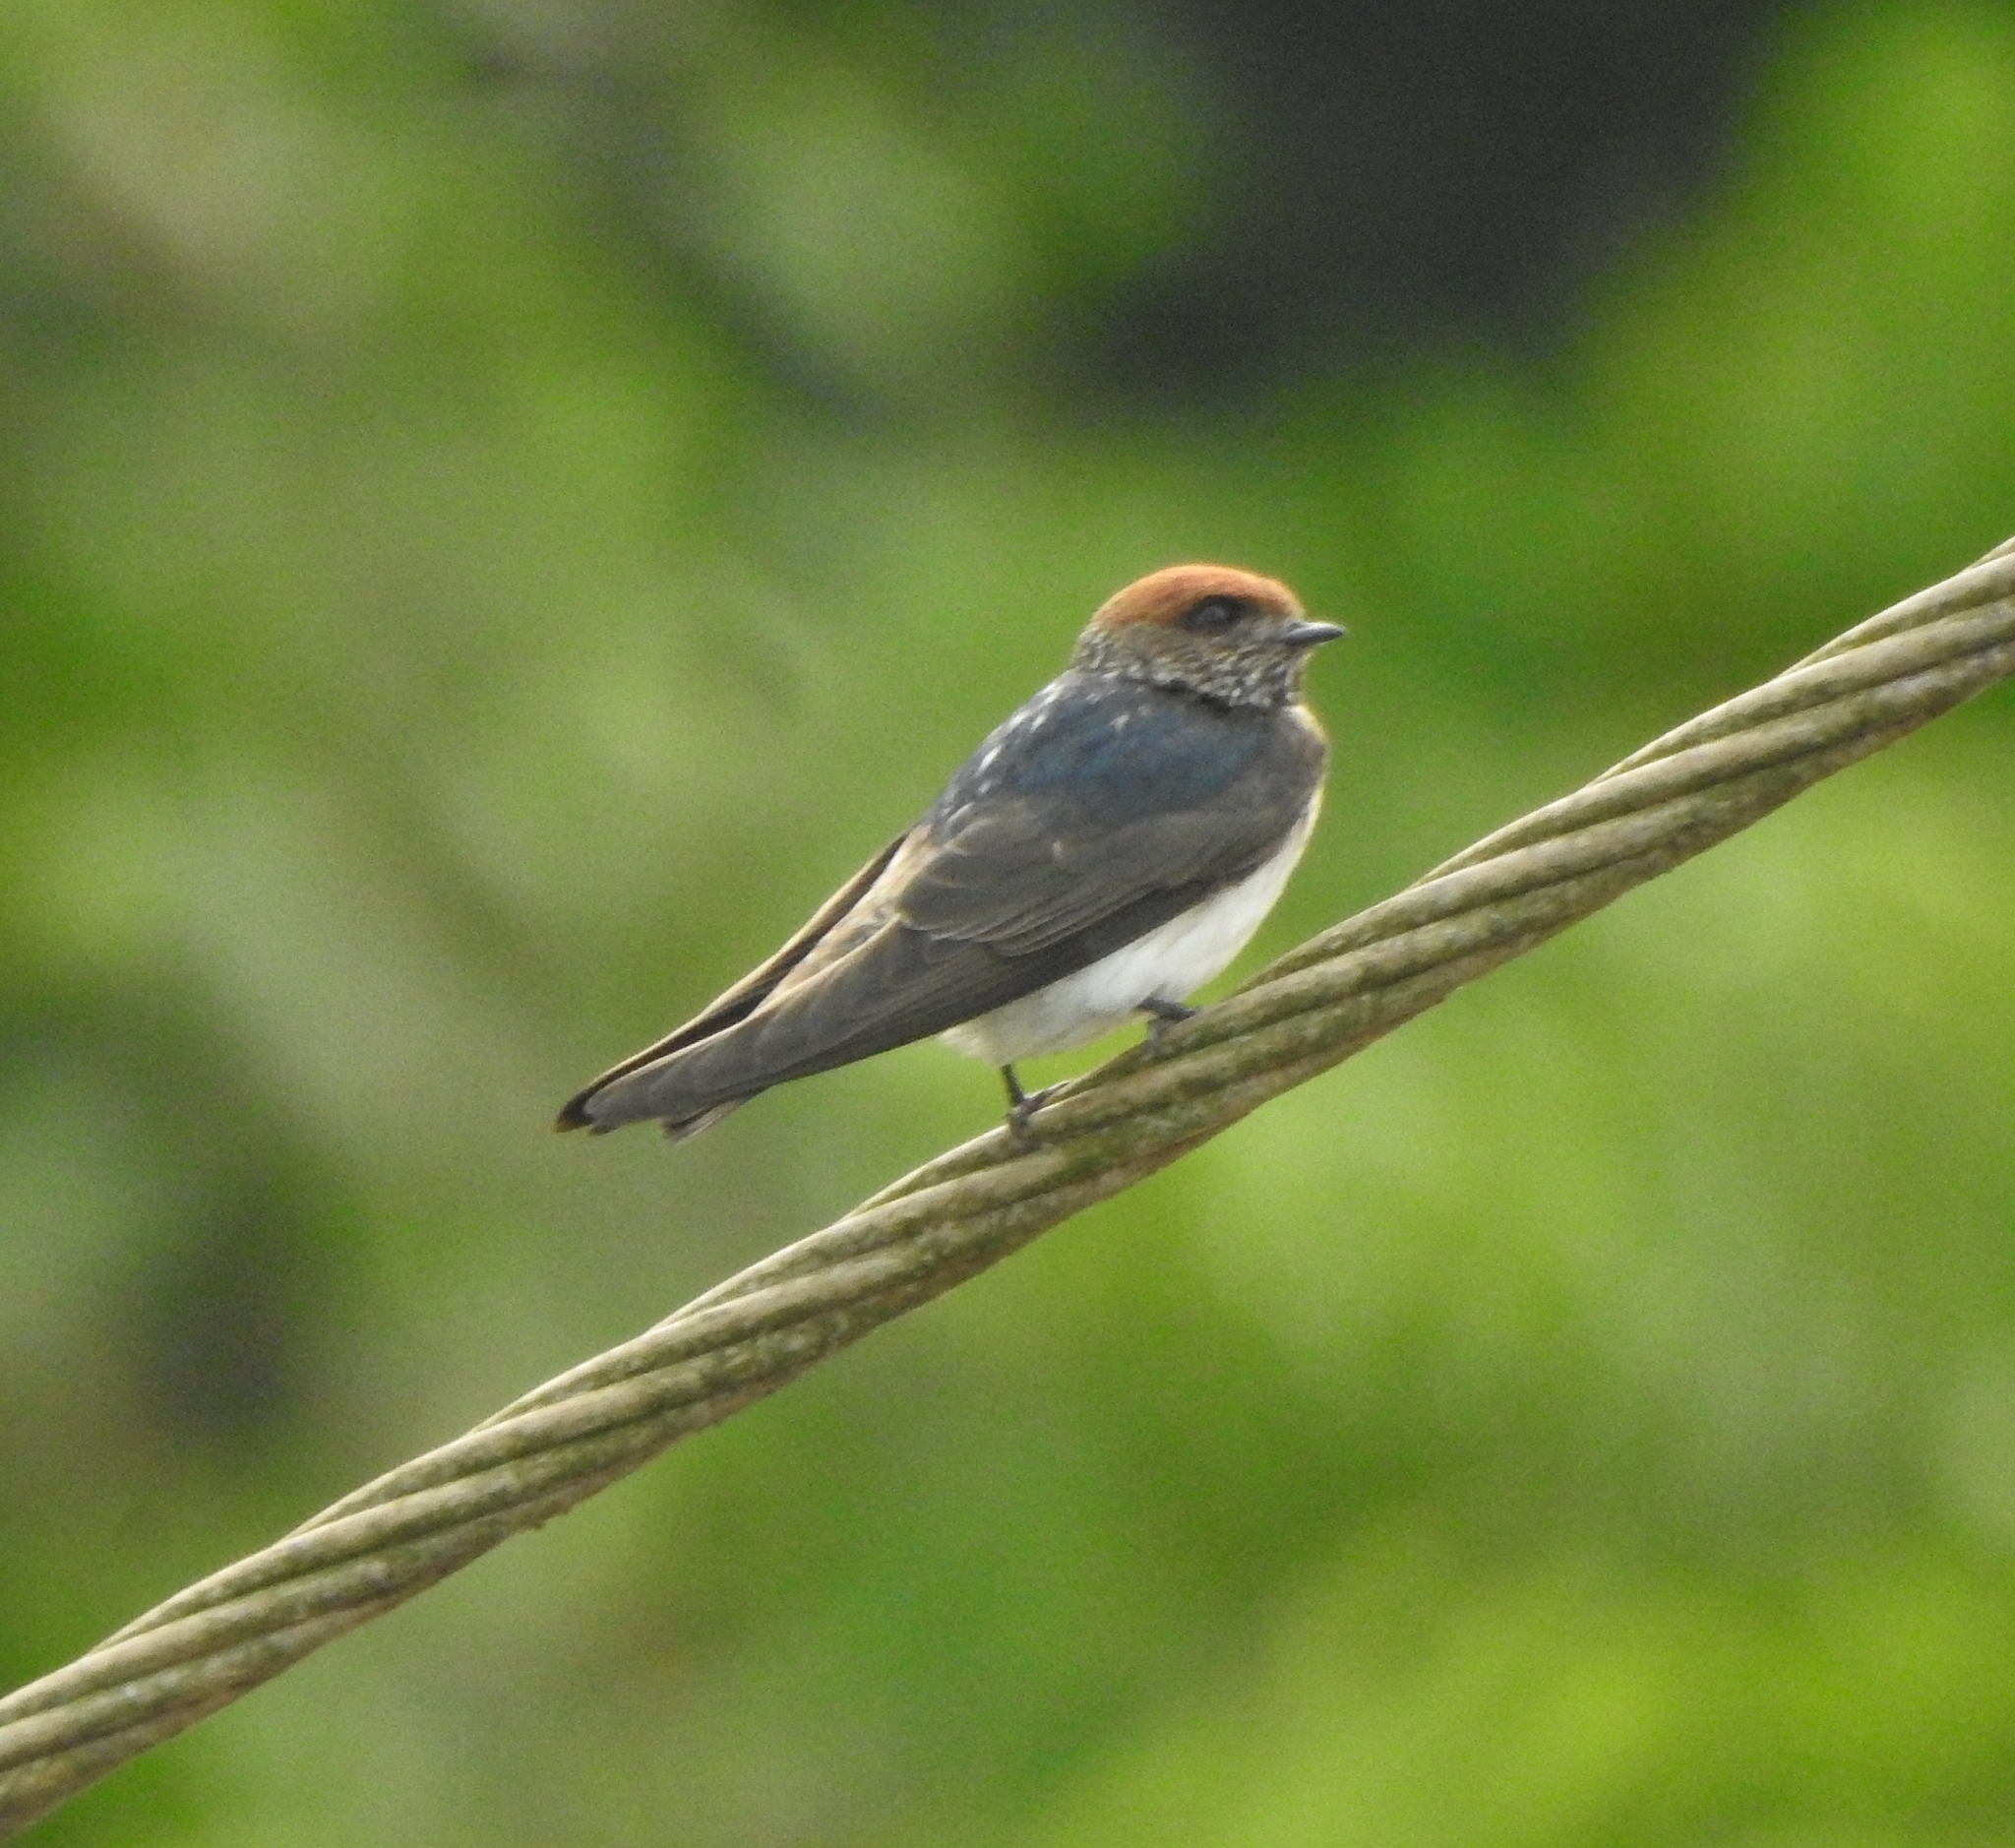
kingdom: Animalia
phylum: Chordata
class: Aves
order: Passeriformes
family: Hirundinidae
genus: Petrochelidon
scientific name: Petrochelidon fluvicola
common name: Streak-throated swallow
